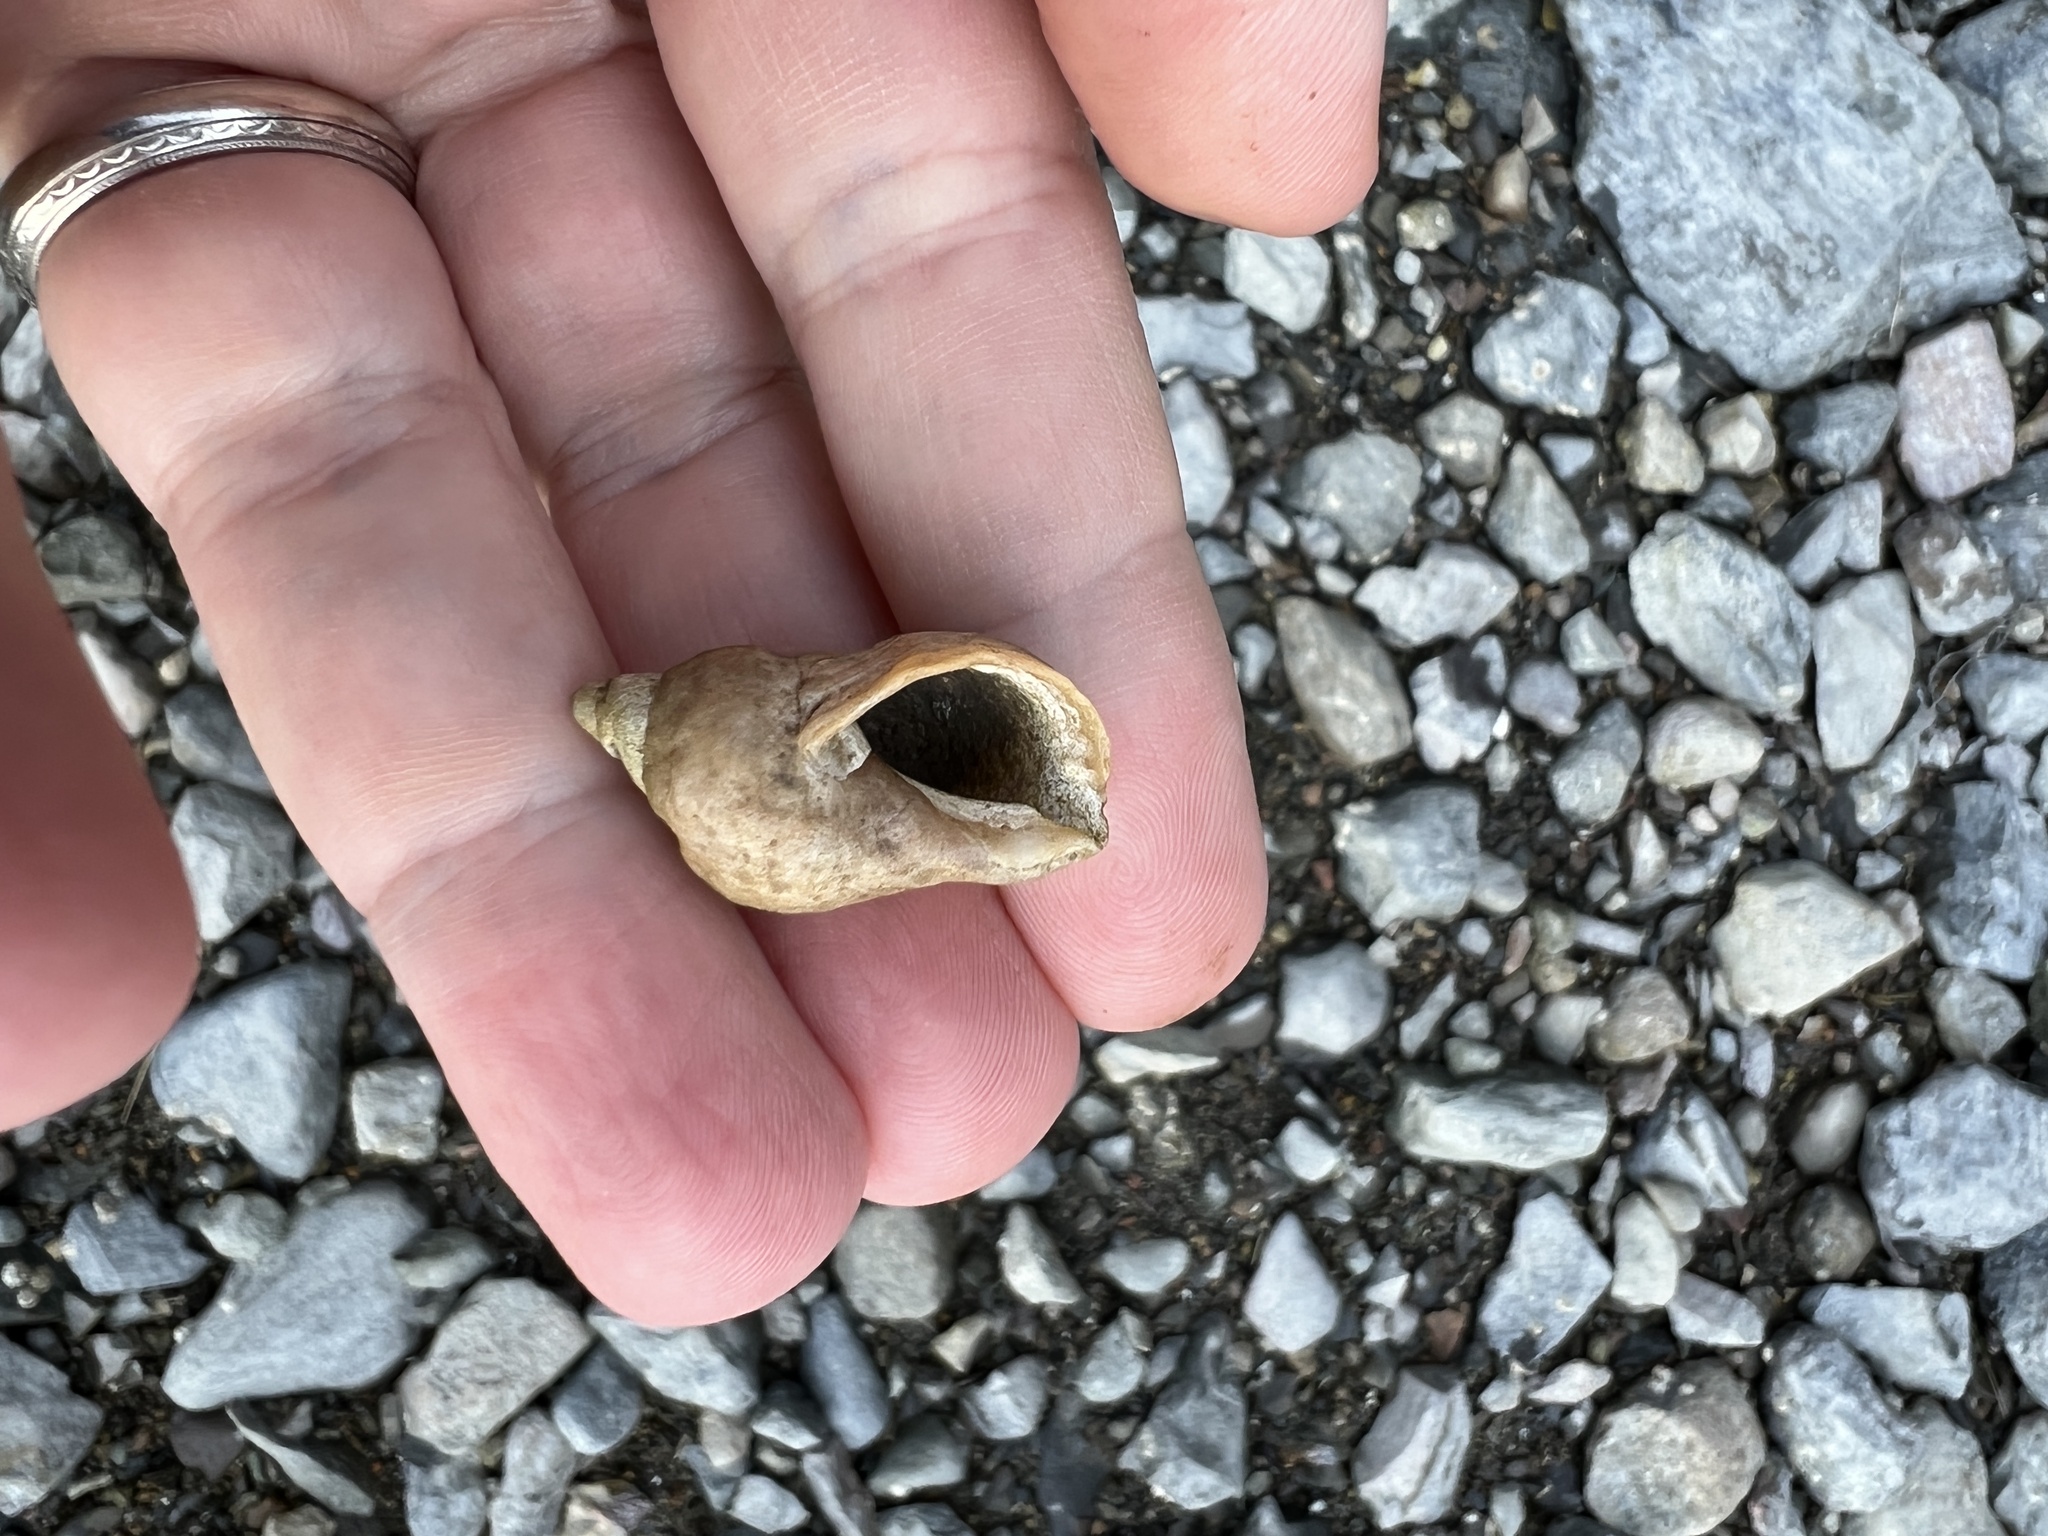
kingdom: Animalia
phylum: Mollusca
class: Gastropoda
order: Neogastropoda
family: Muricidae
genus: Nucella
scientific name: Nucella lapillus
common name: Dog whelk
